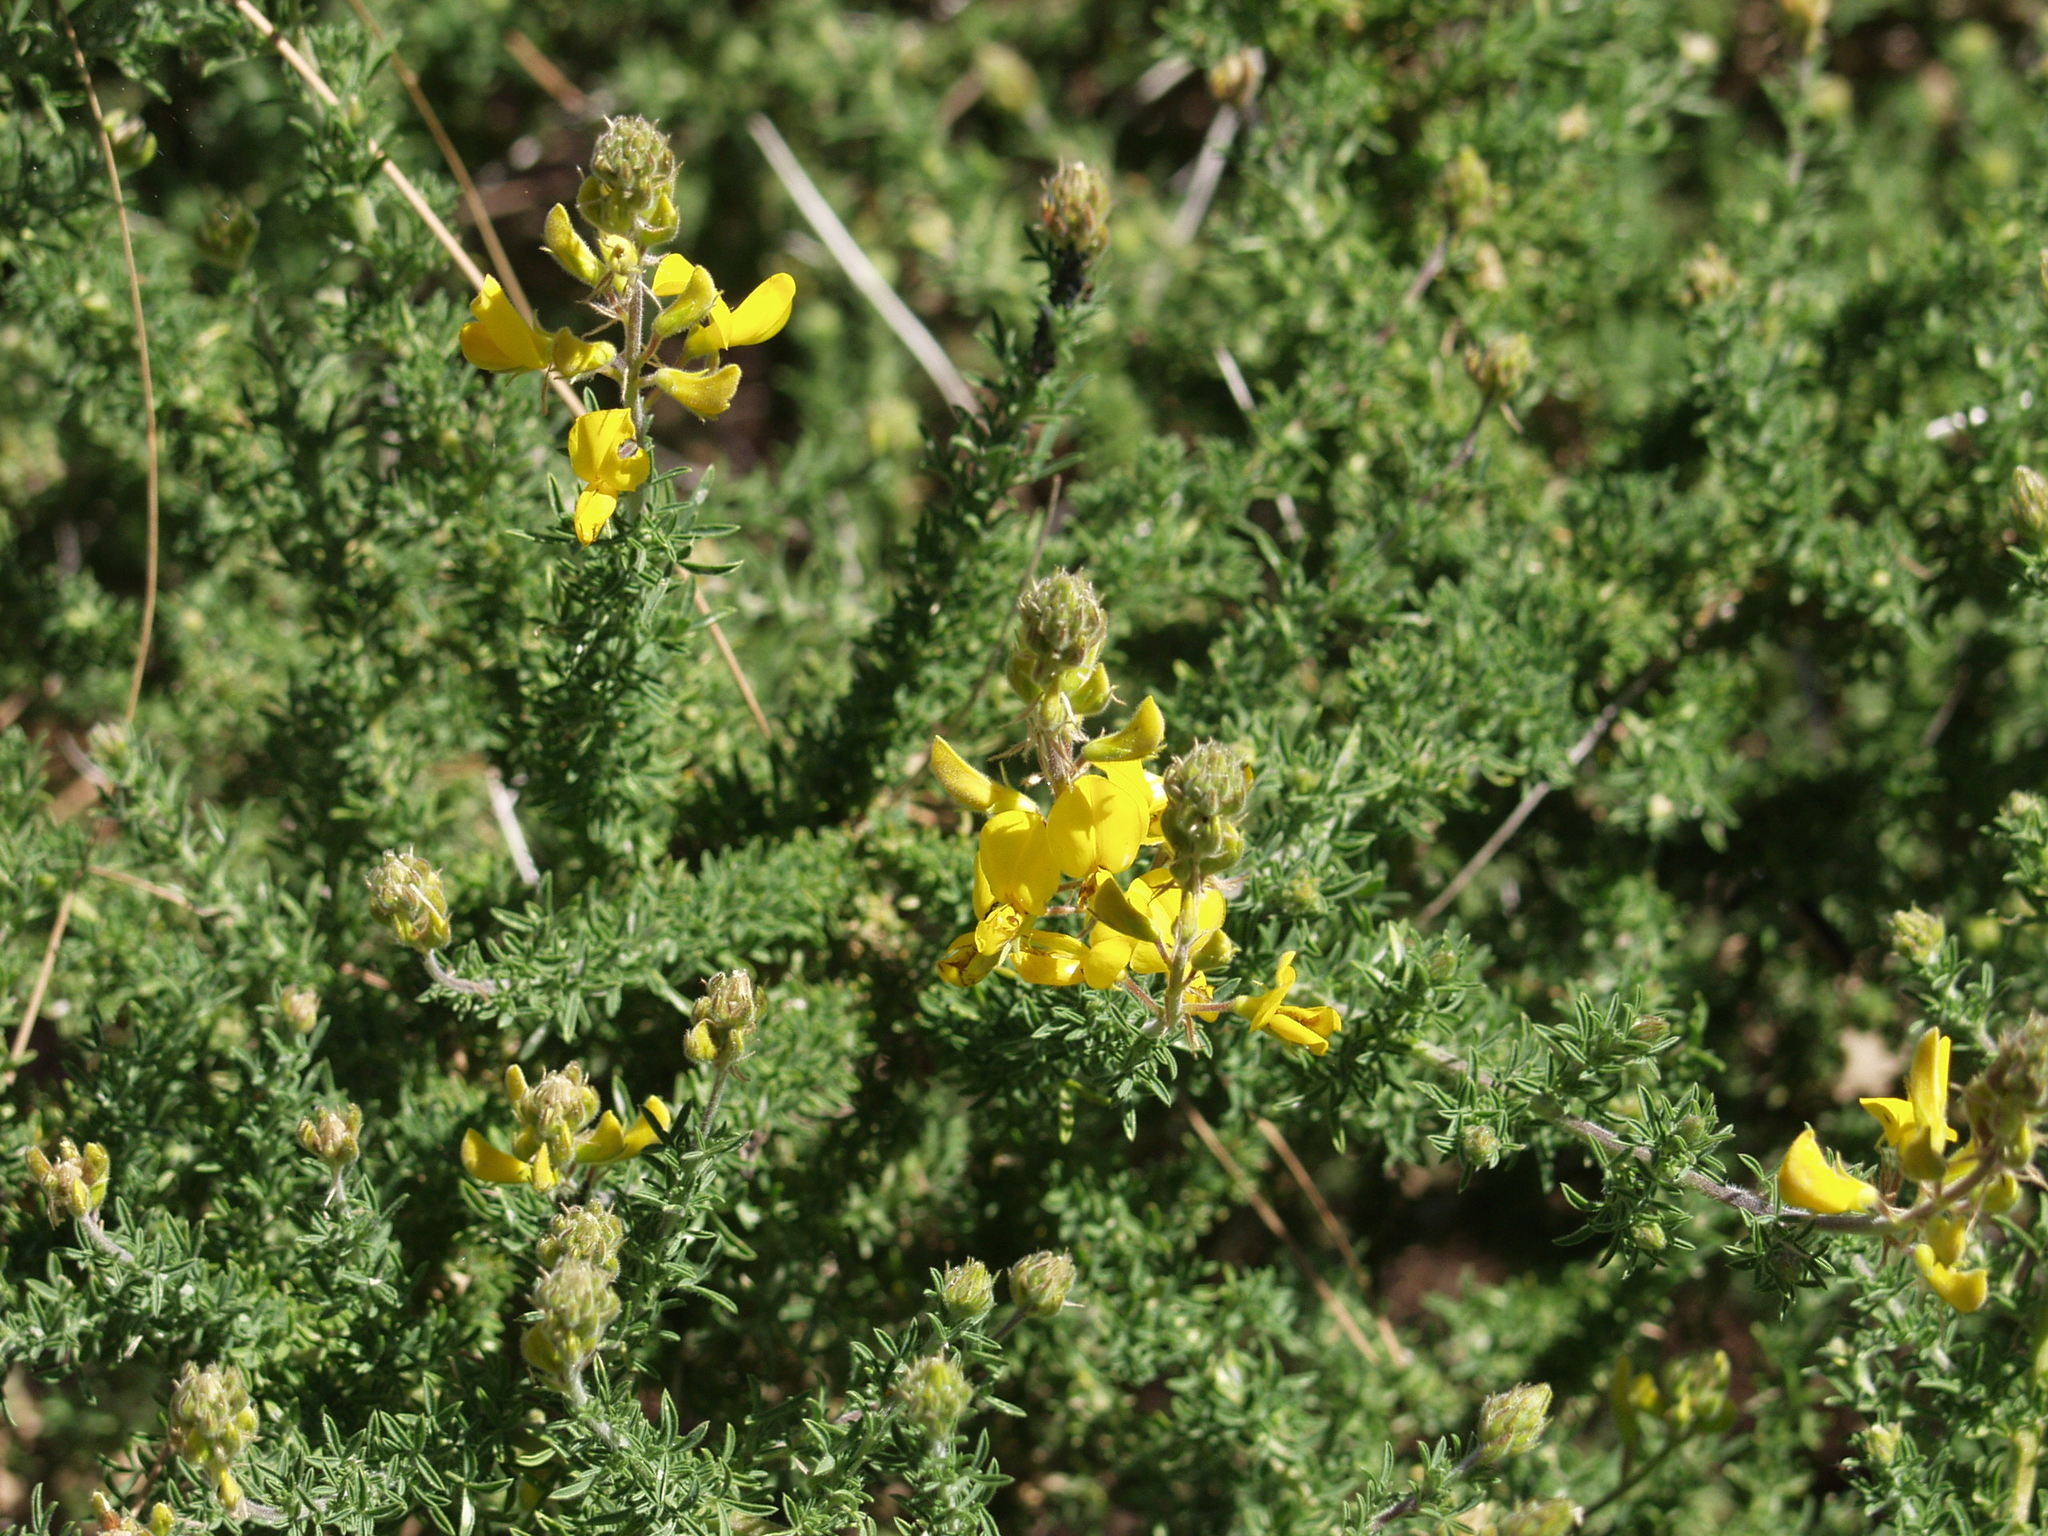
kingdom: Plantae
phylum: Tracheophyta
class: Magnoliopsida
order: Fabales
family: Fabaceae
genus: Adenocarpus
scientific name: Adenocarpus foliolosus
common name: Canary island flatpod
